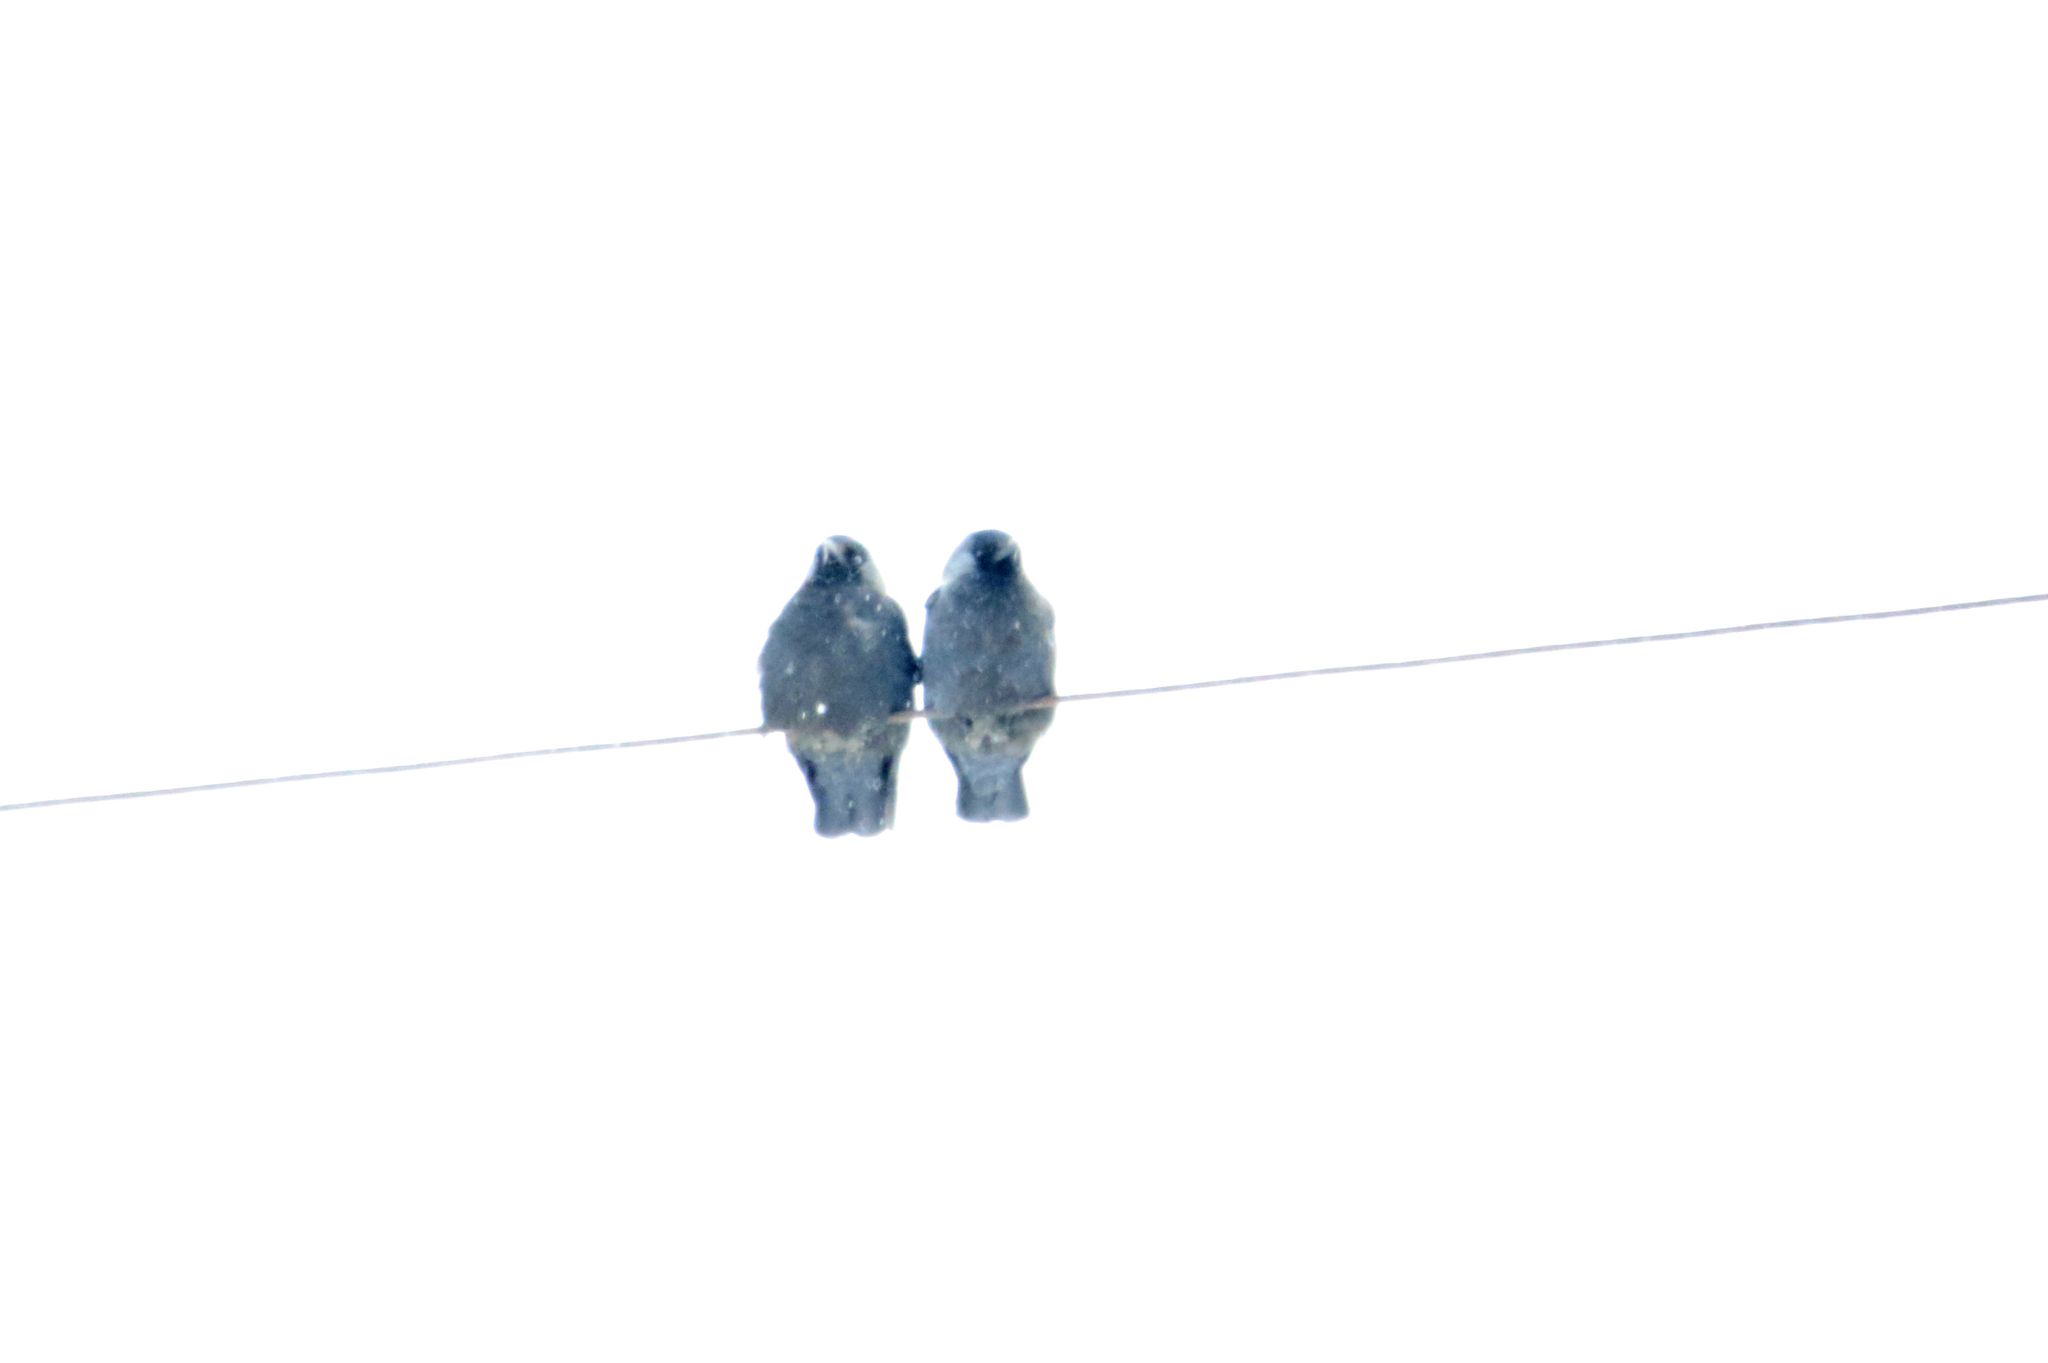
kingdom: Animalia
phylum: Chordata
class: Aves
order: Passeriformes
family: Corvidae
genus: Coloeus
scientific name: Coloeus monedula
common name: Western jackdaw
